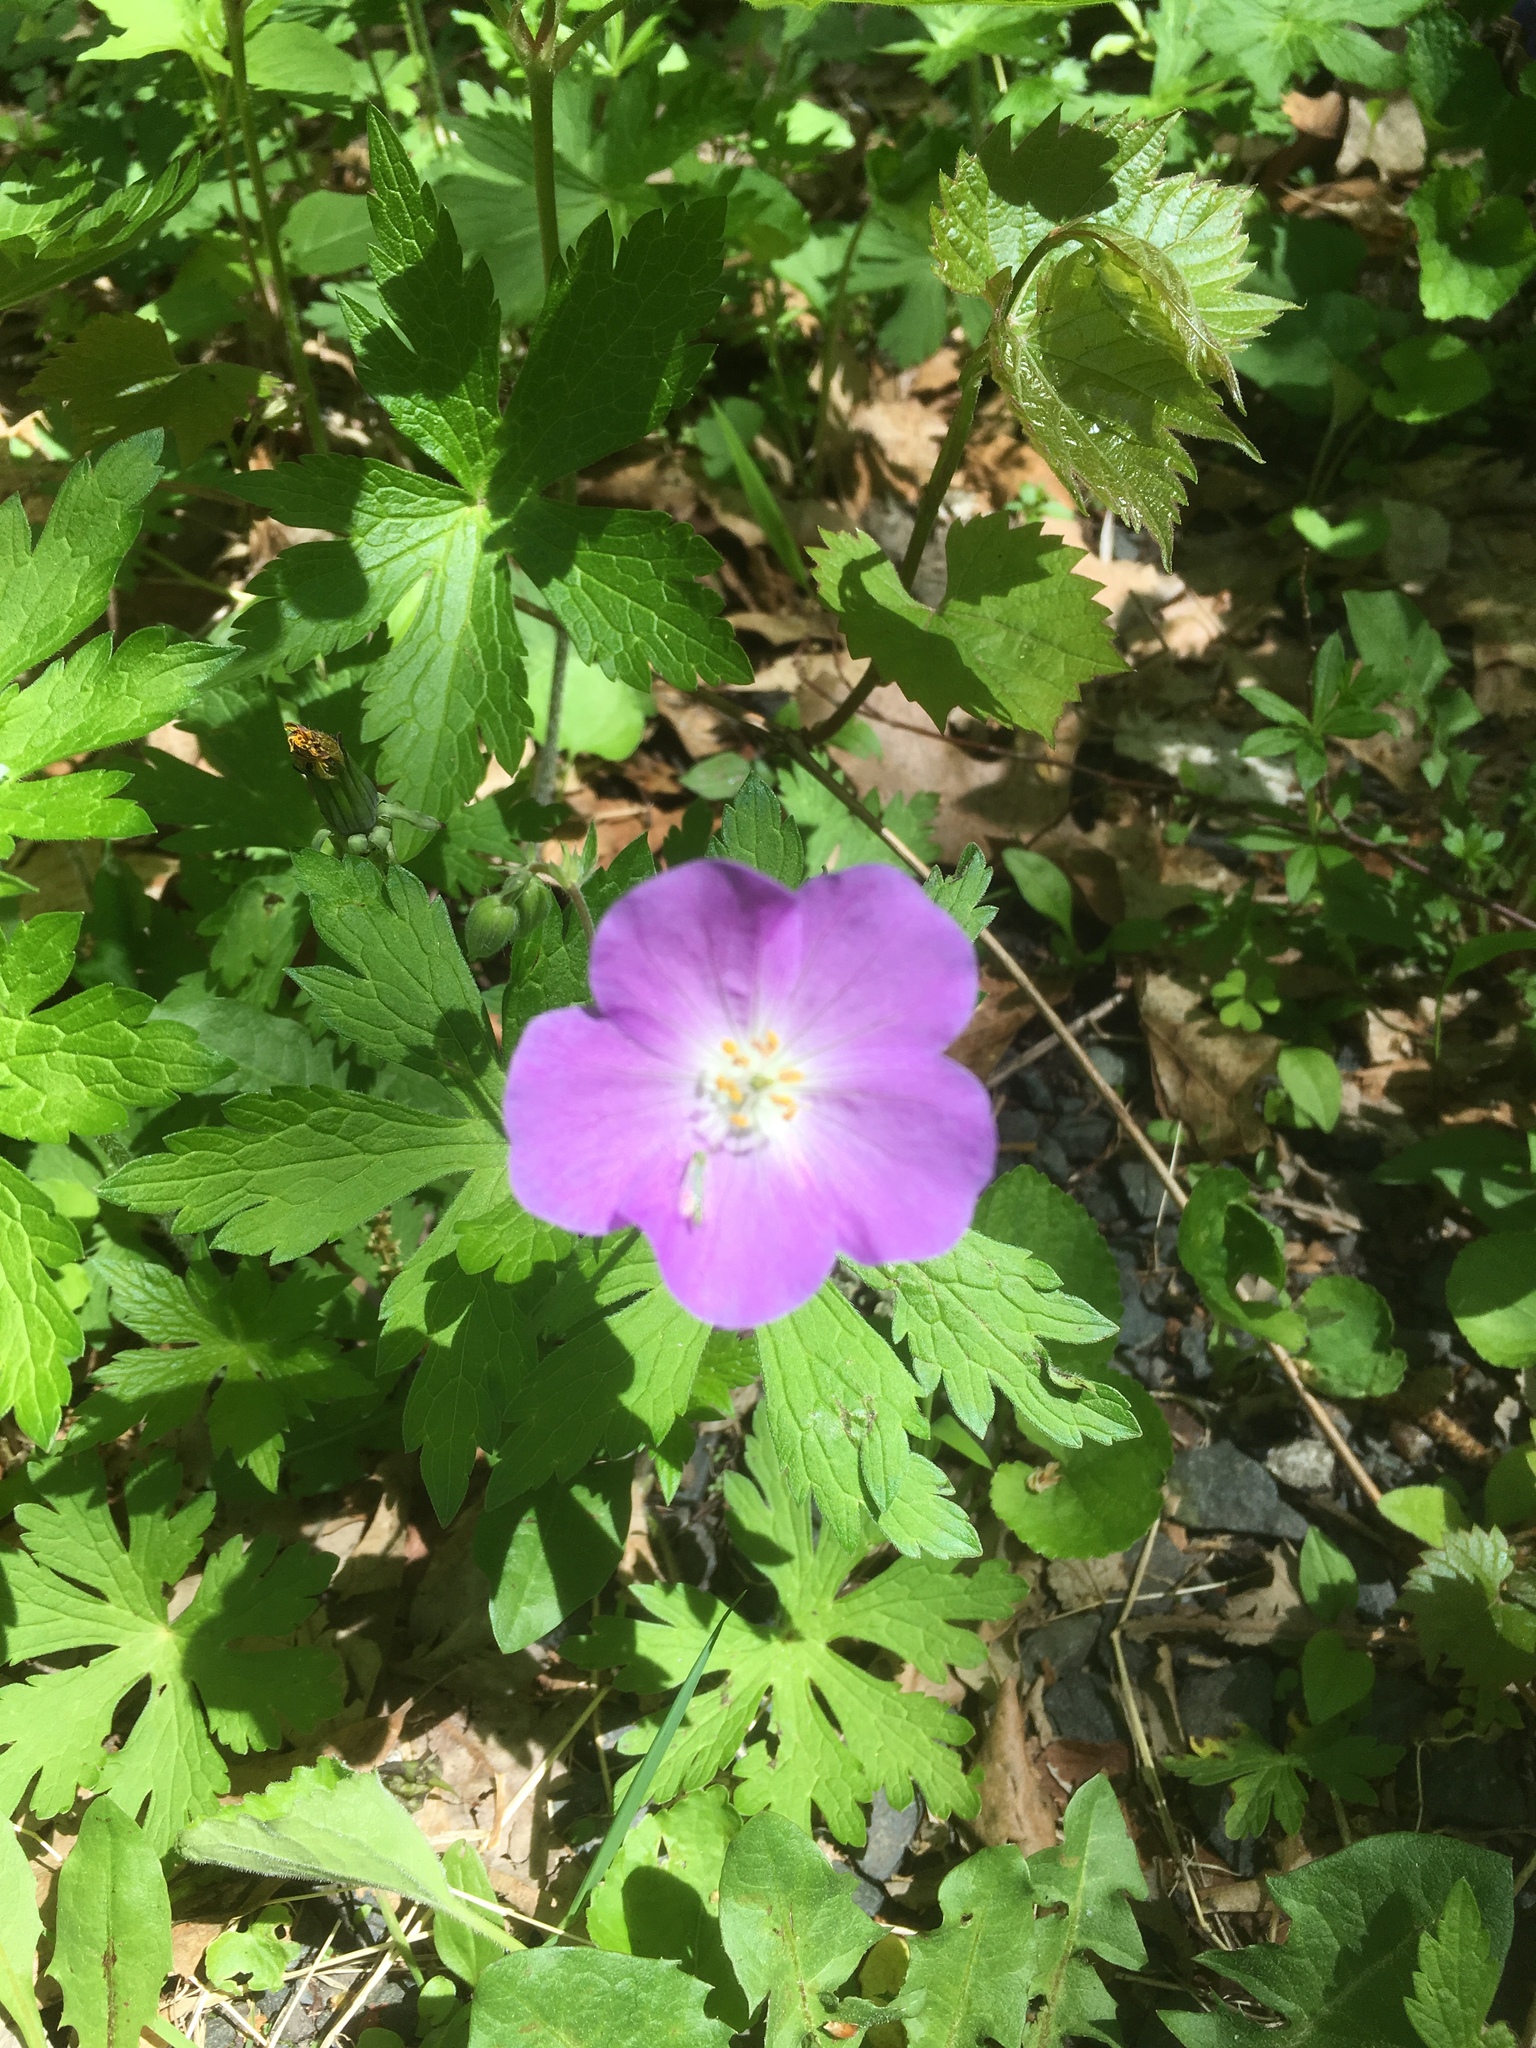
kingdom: Plantae
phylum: Tracheophyta
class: Magnoliopsida
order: Geraniales
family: Geraniaceae
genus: Geranium
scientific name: Geranium maculatum
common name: Spotted geranium
